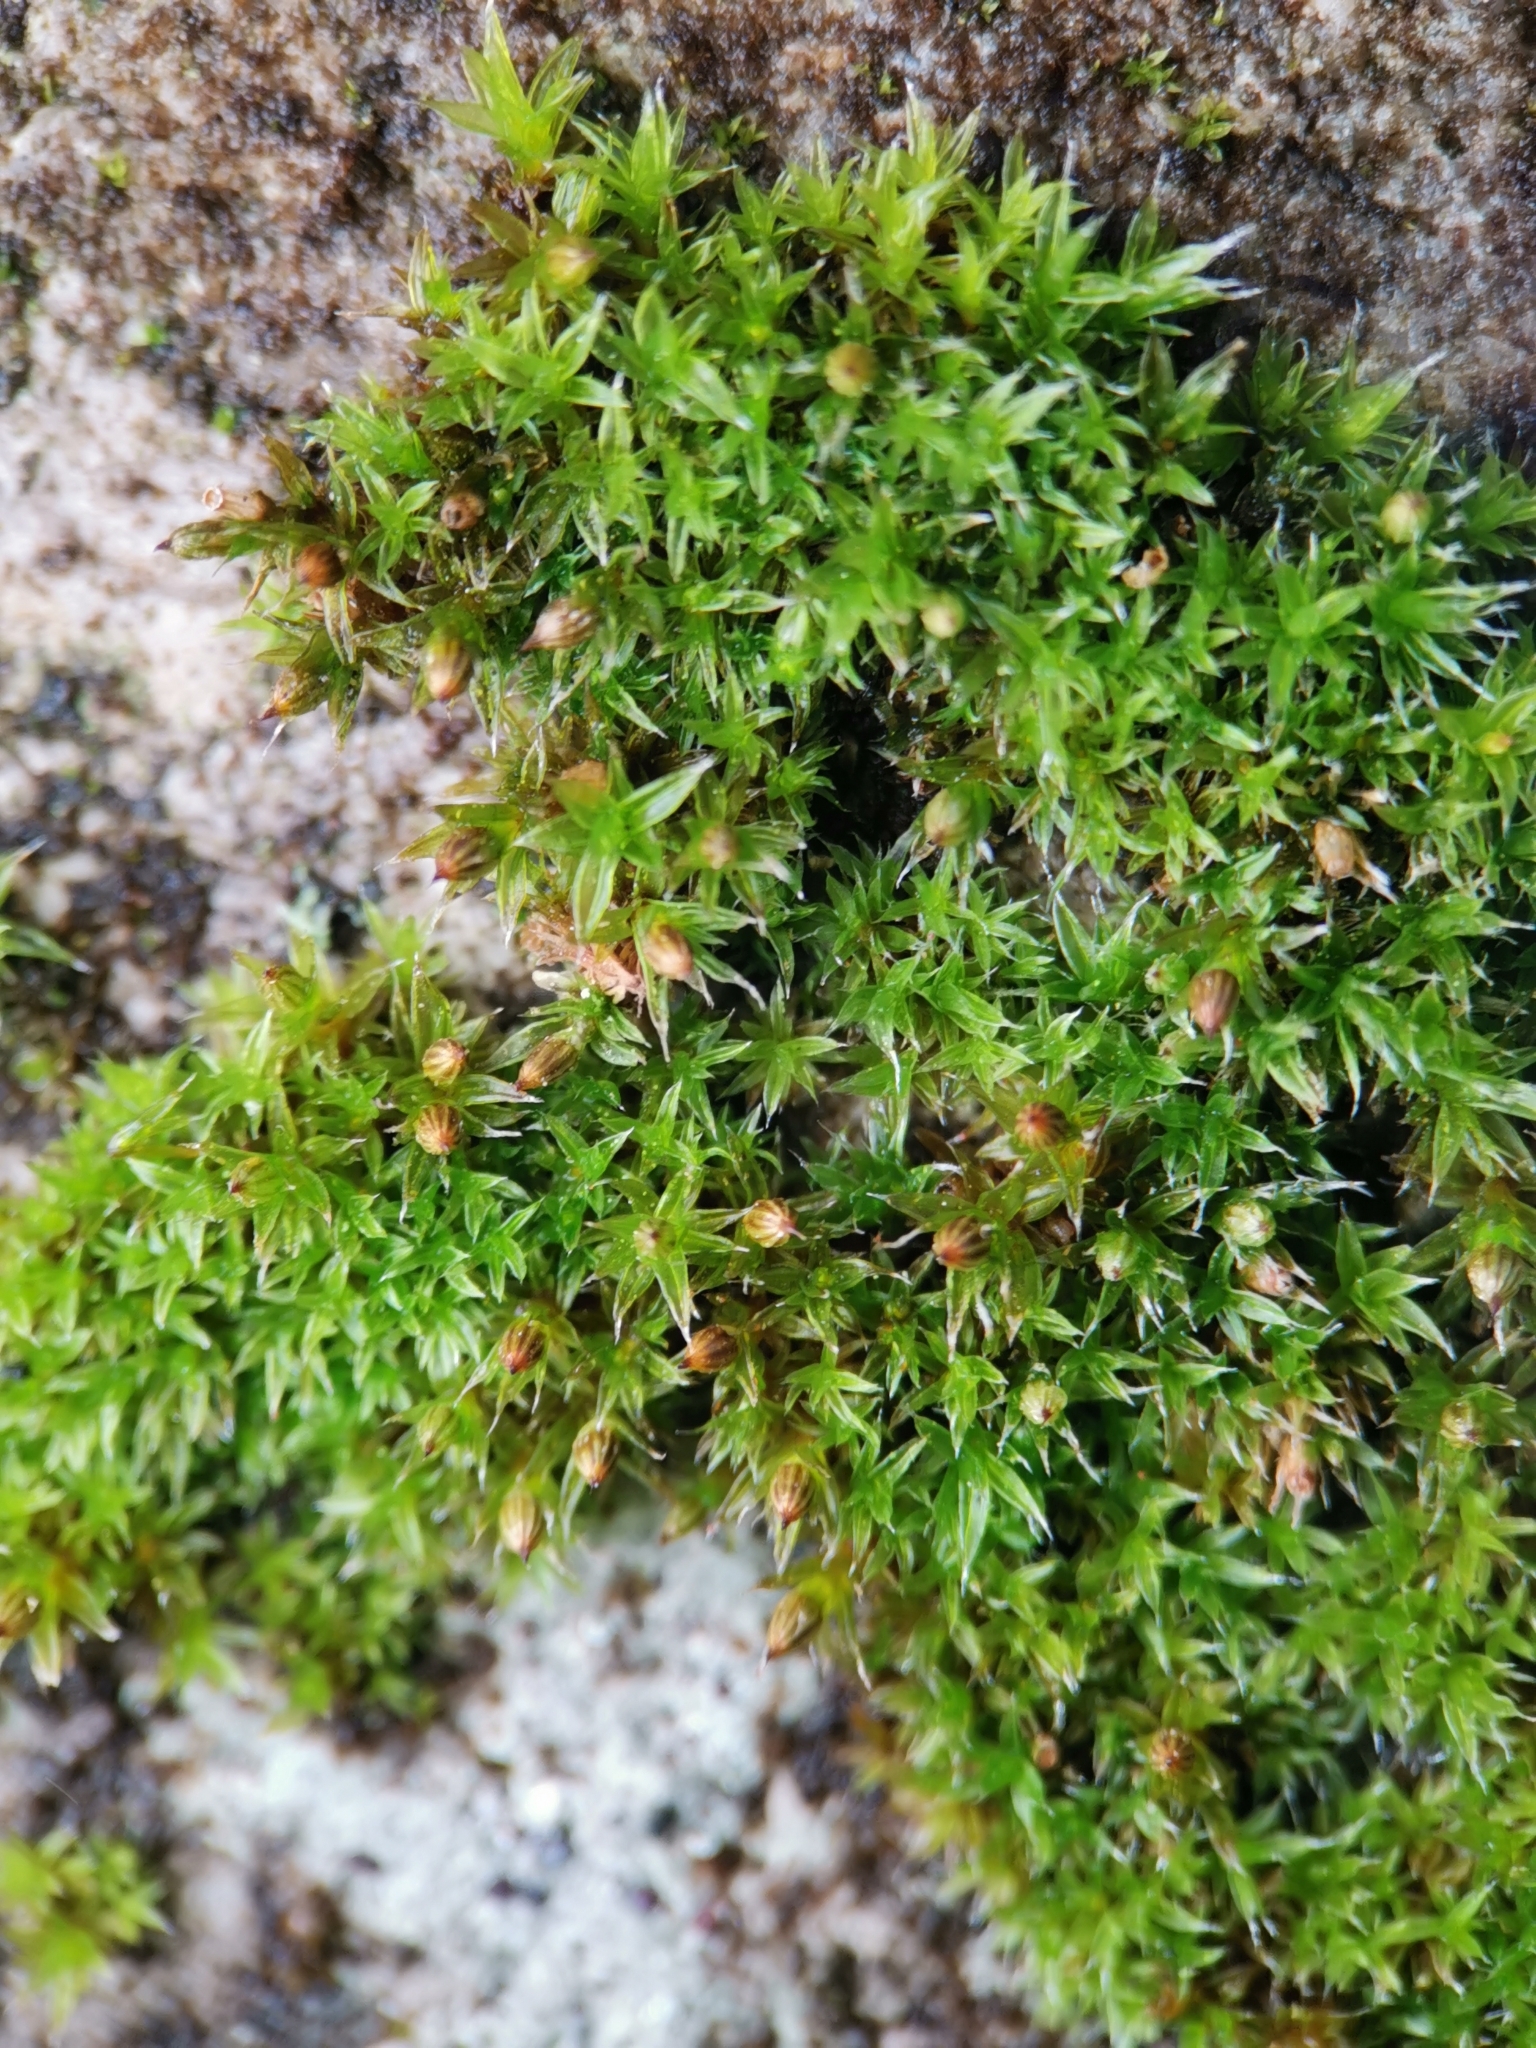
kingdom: Plantae
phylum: Bryophyta
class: Bryopsida
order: Orthotrichales
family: Orthotrichaceae
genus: Orthotrichum
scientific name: Orthotrichum diaphanum
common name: White-tipped bristle-moss
